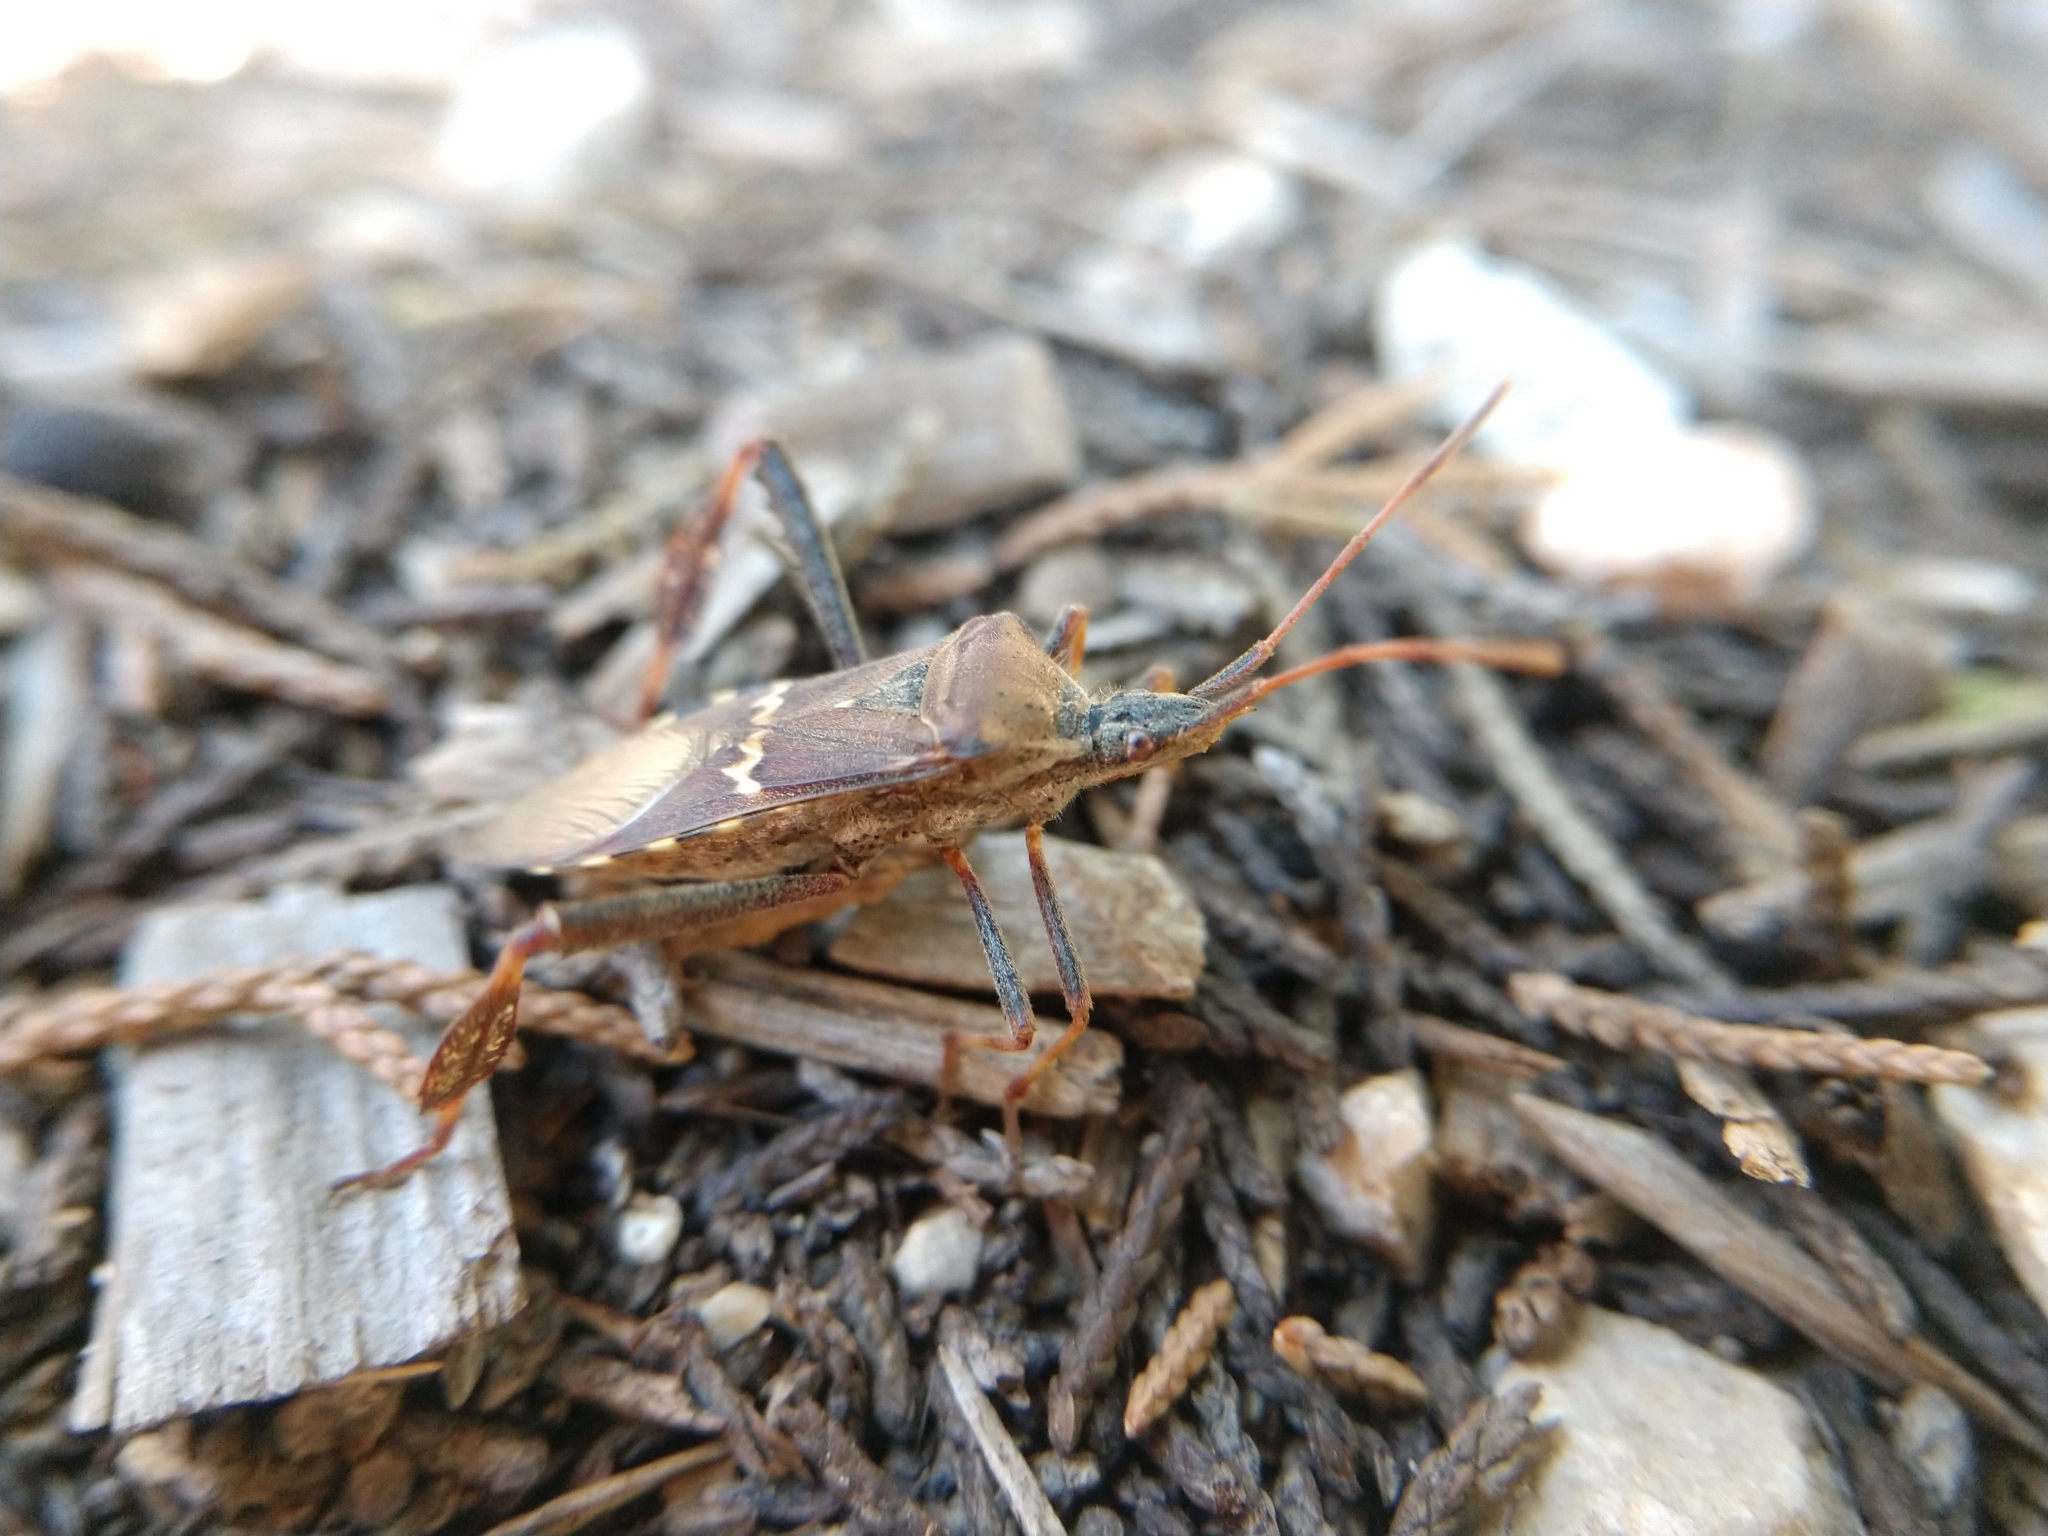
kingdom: Animalia
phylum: Arthropoda
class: Insecta
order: Hemiptera
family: Coreidae
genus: Leptoglossus
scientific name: Leptoglossus clypealis
